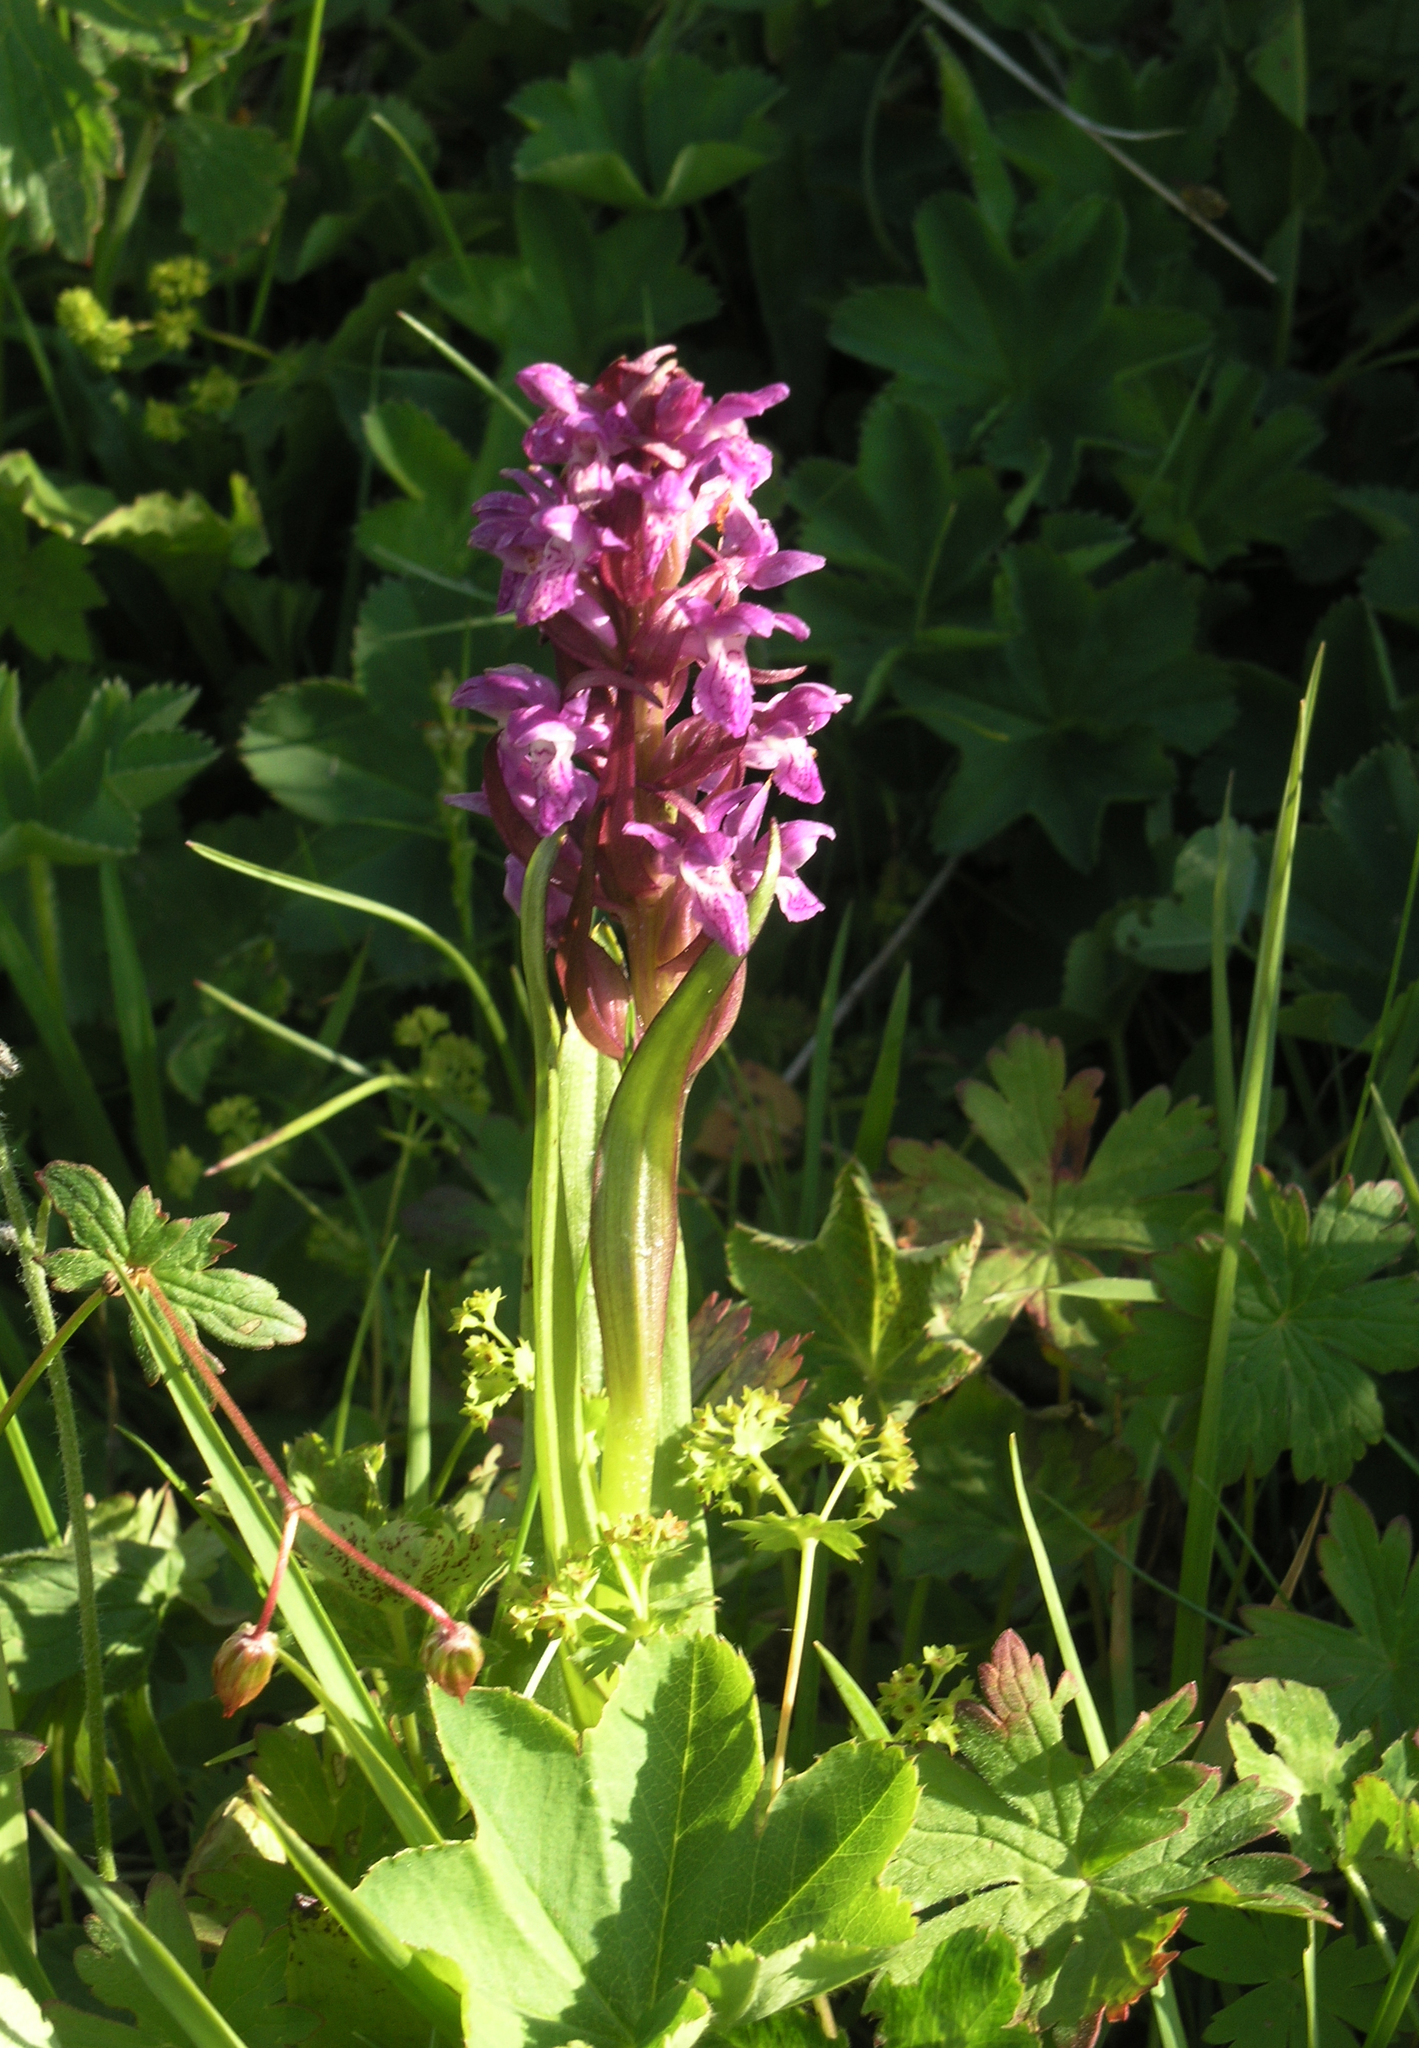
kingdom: Plantae
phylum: Tracheophyta
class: Liliopsida
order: Asparagales
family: Orchidaceae
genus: Dactylorhiza
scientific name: Dactylorhiza incarnata
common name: Early marsh-orchid
